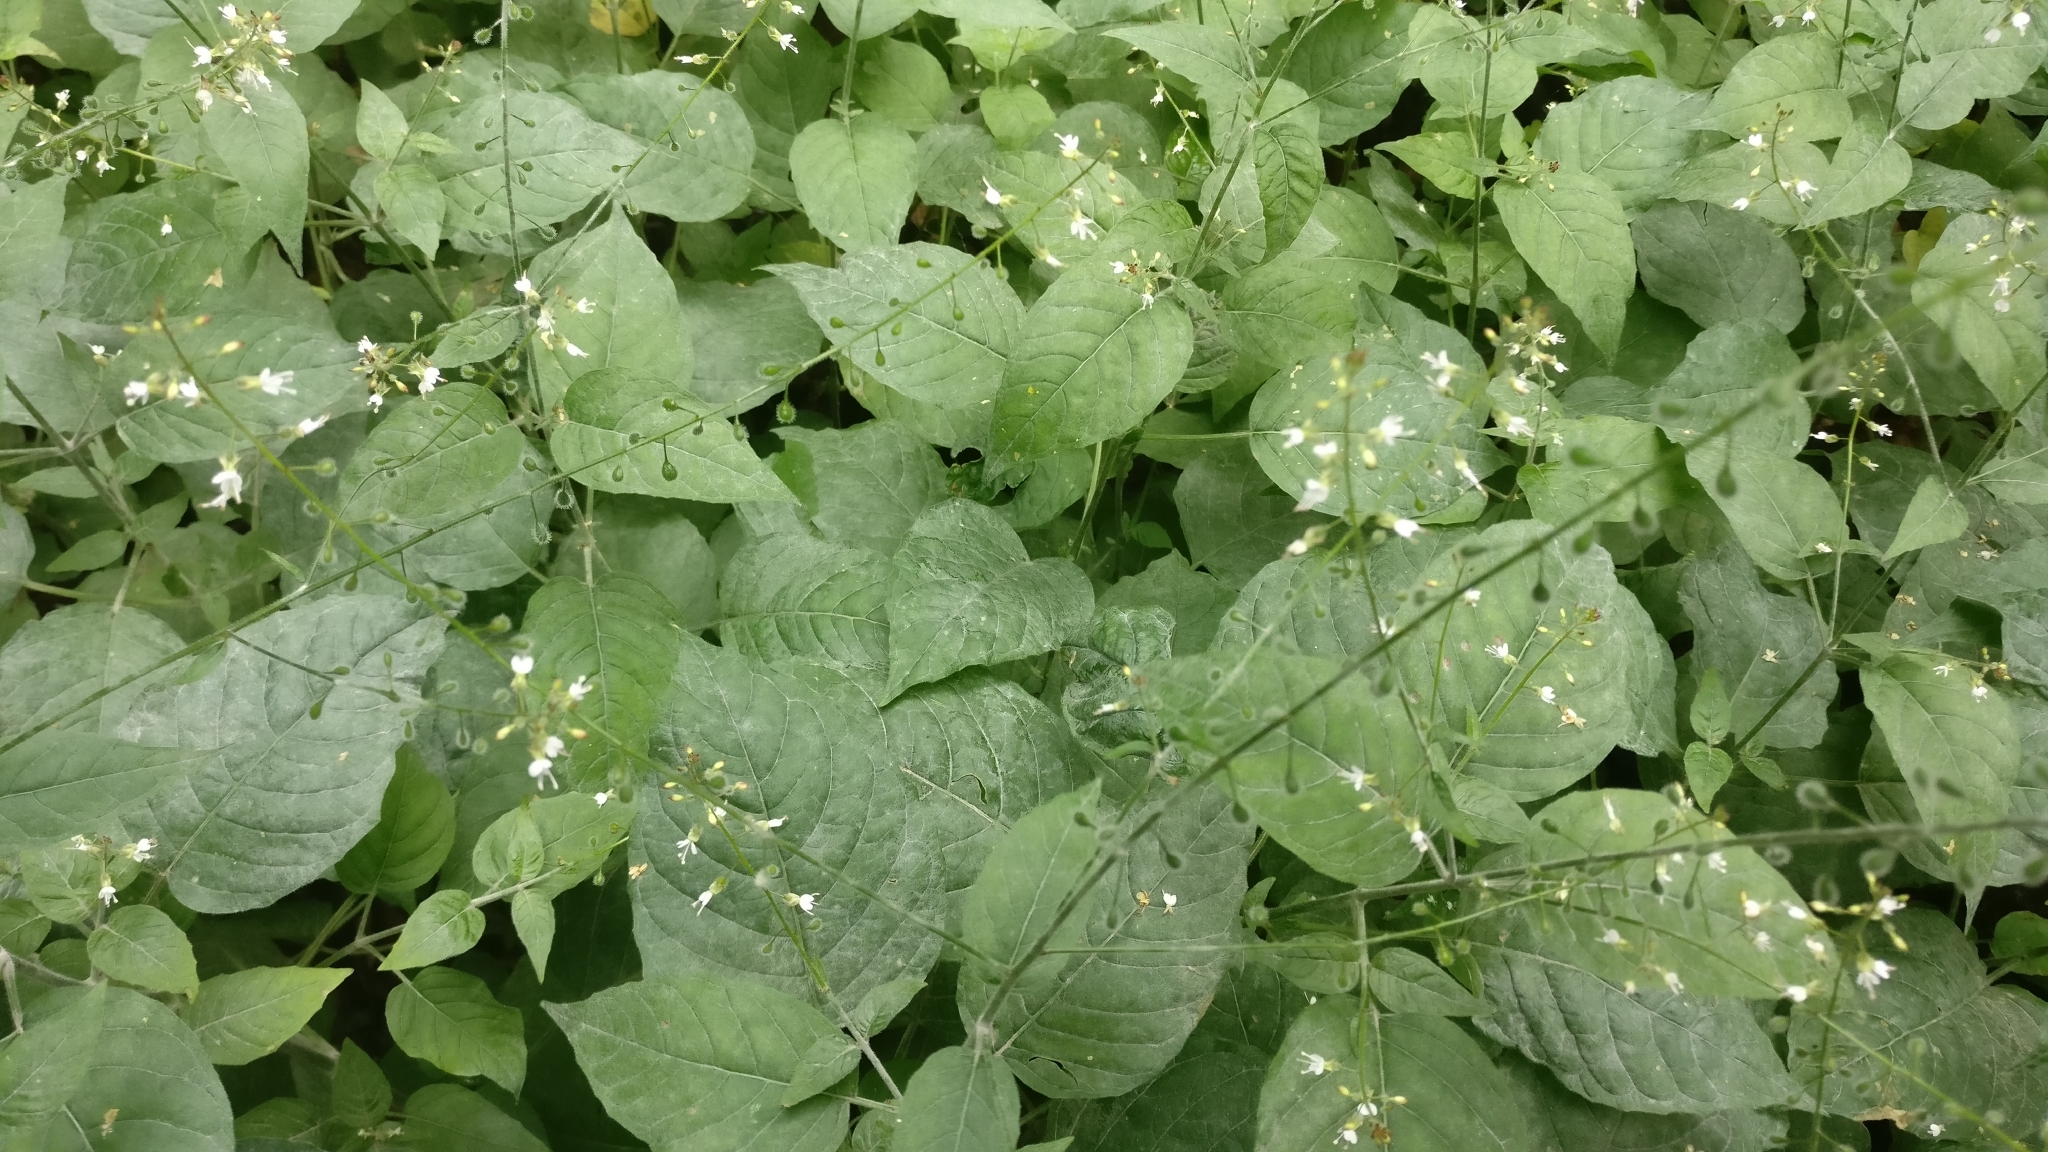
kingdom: Plantae
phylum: Tracheophyta
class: Magnoliopsida
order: Myrtales
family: Onagraceae
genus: Circaea
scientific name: Circaea lutetiana
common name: Enchanter's-nightshade
